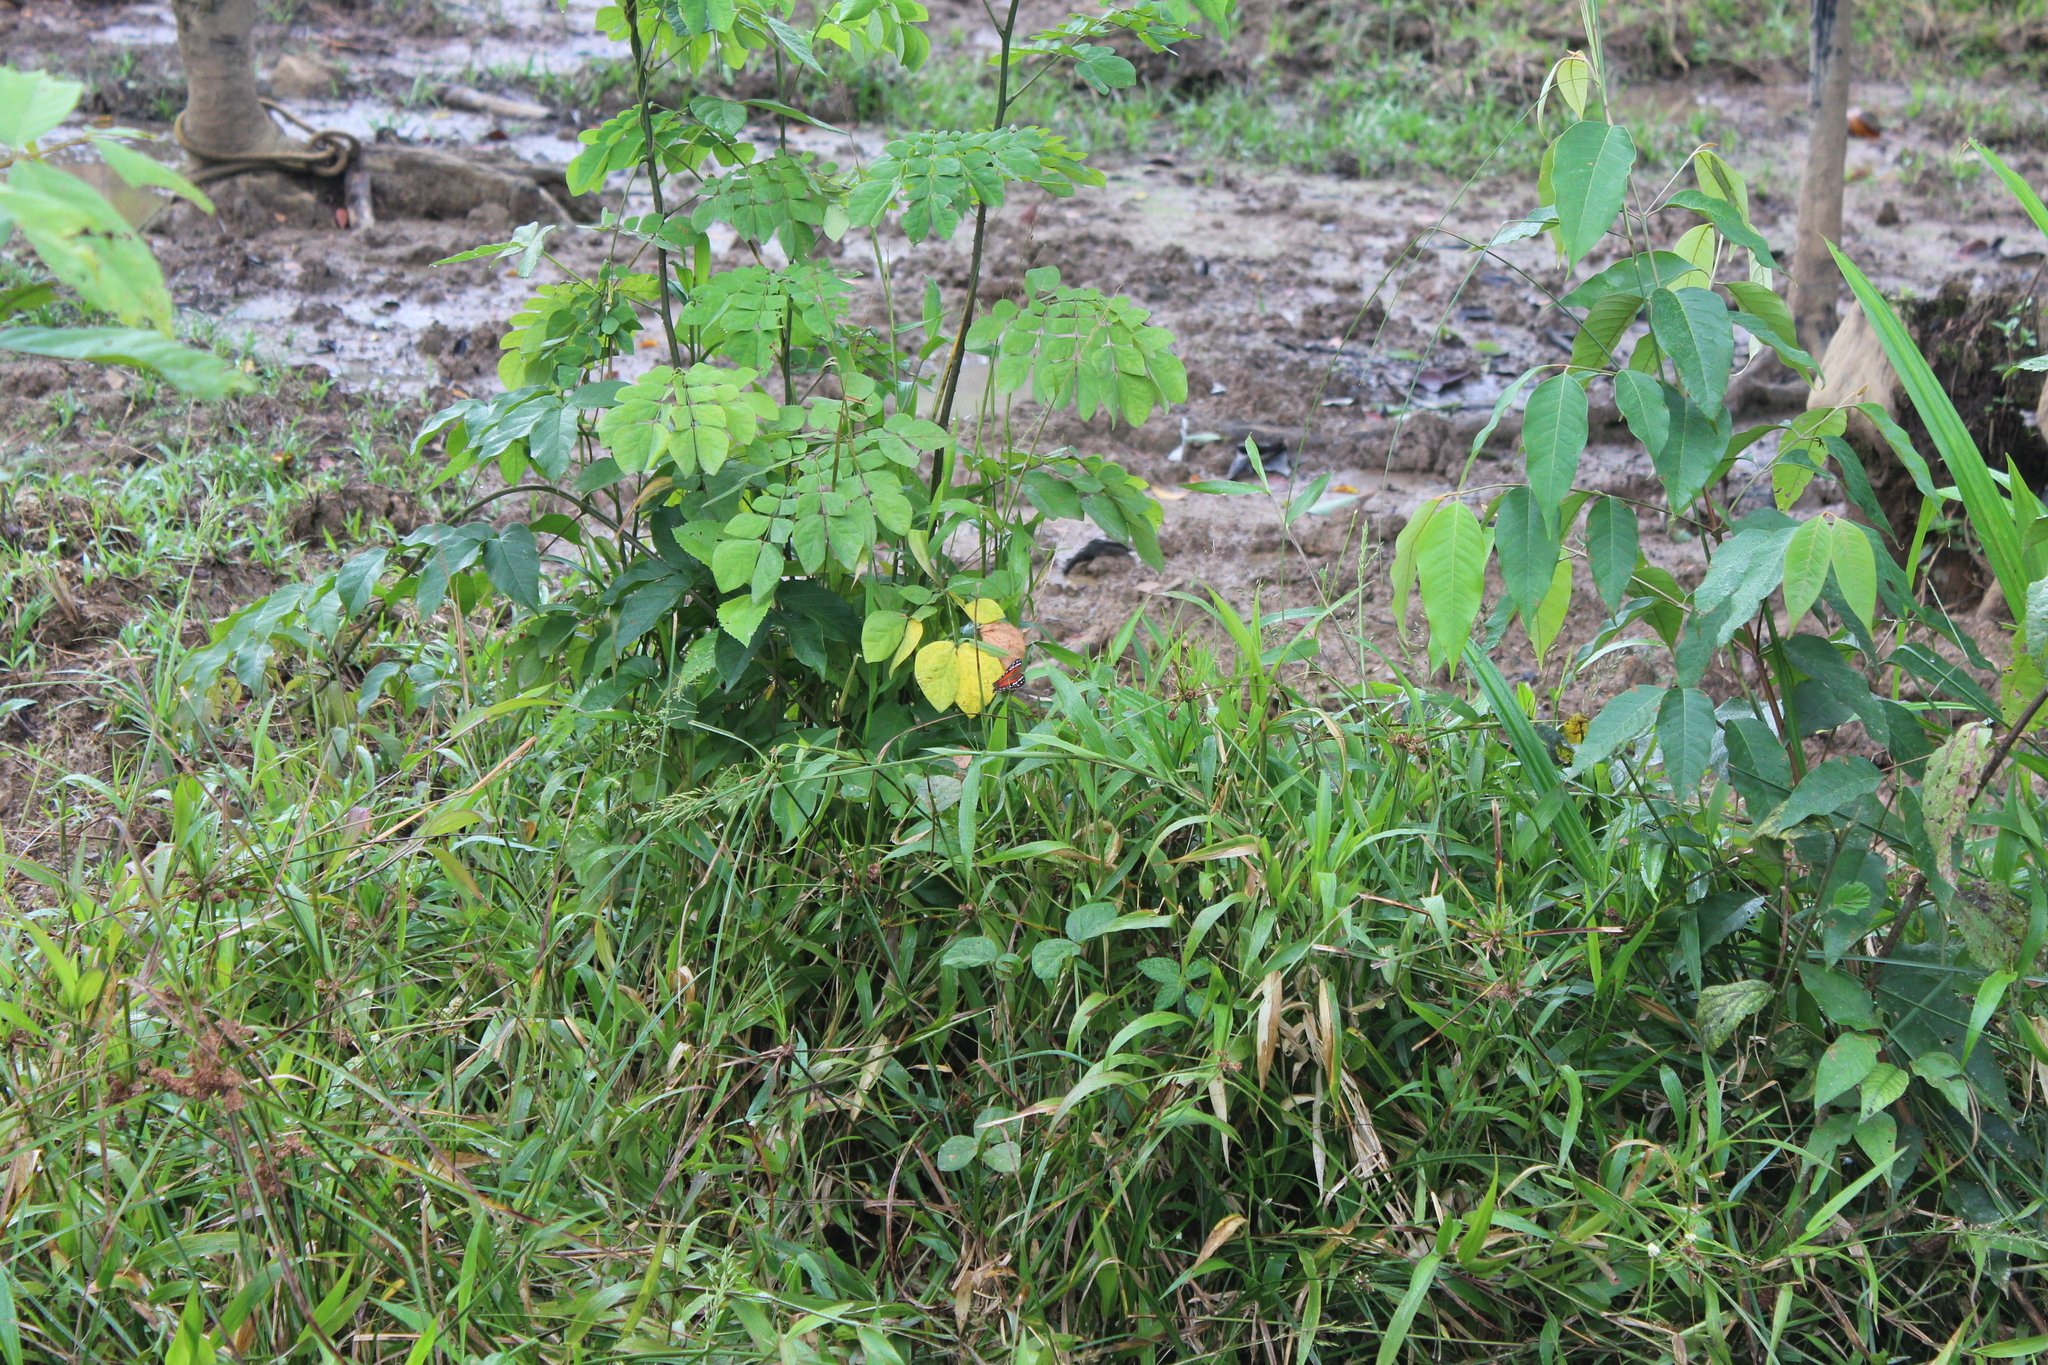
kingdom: Animalia
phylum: Arthropoda
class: Insecta
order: Lepidoptera
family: Nymphalidae
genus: Anartia
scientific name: Anartia amathea
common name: Red peacock
